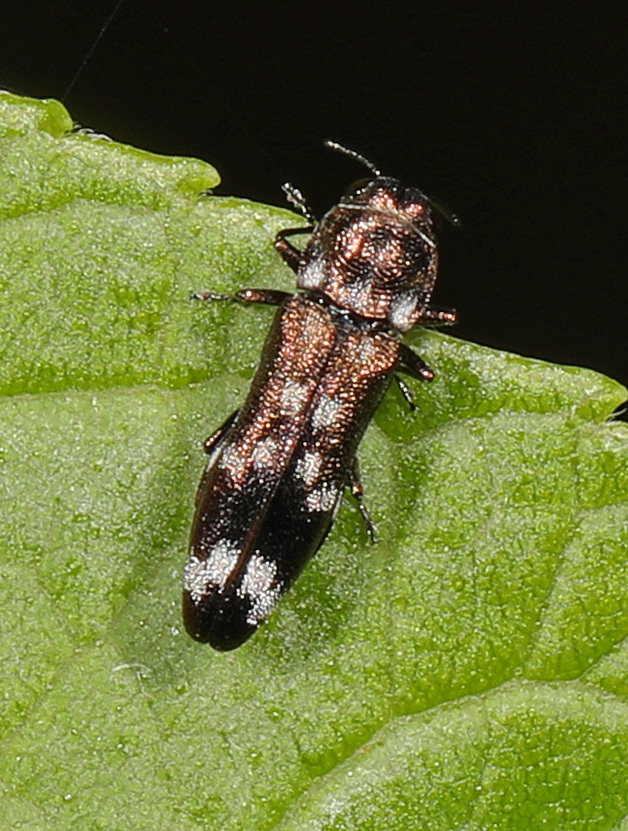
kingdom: Animalia
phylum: Arthropoda
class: Insecta
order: Coleoptera
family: Buprestidae
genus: Agrilus
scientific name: Agrilus subcinctus
